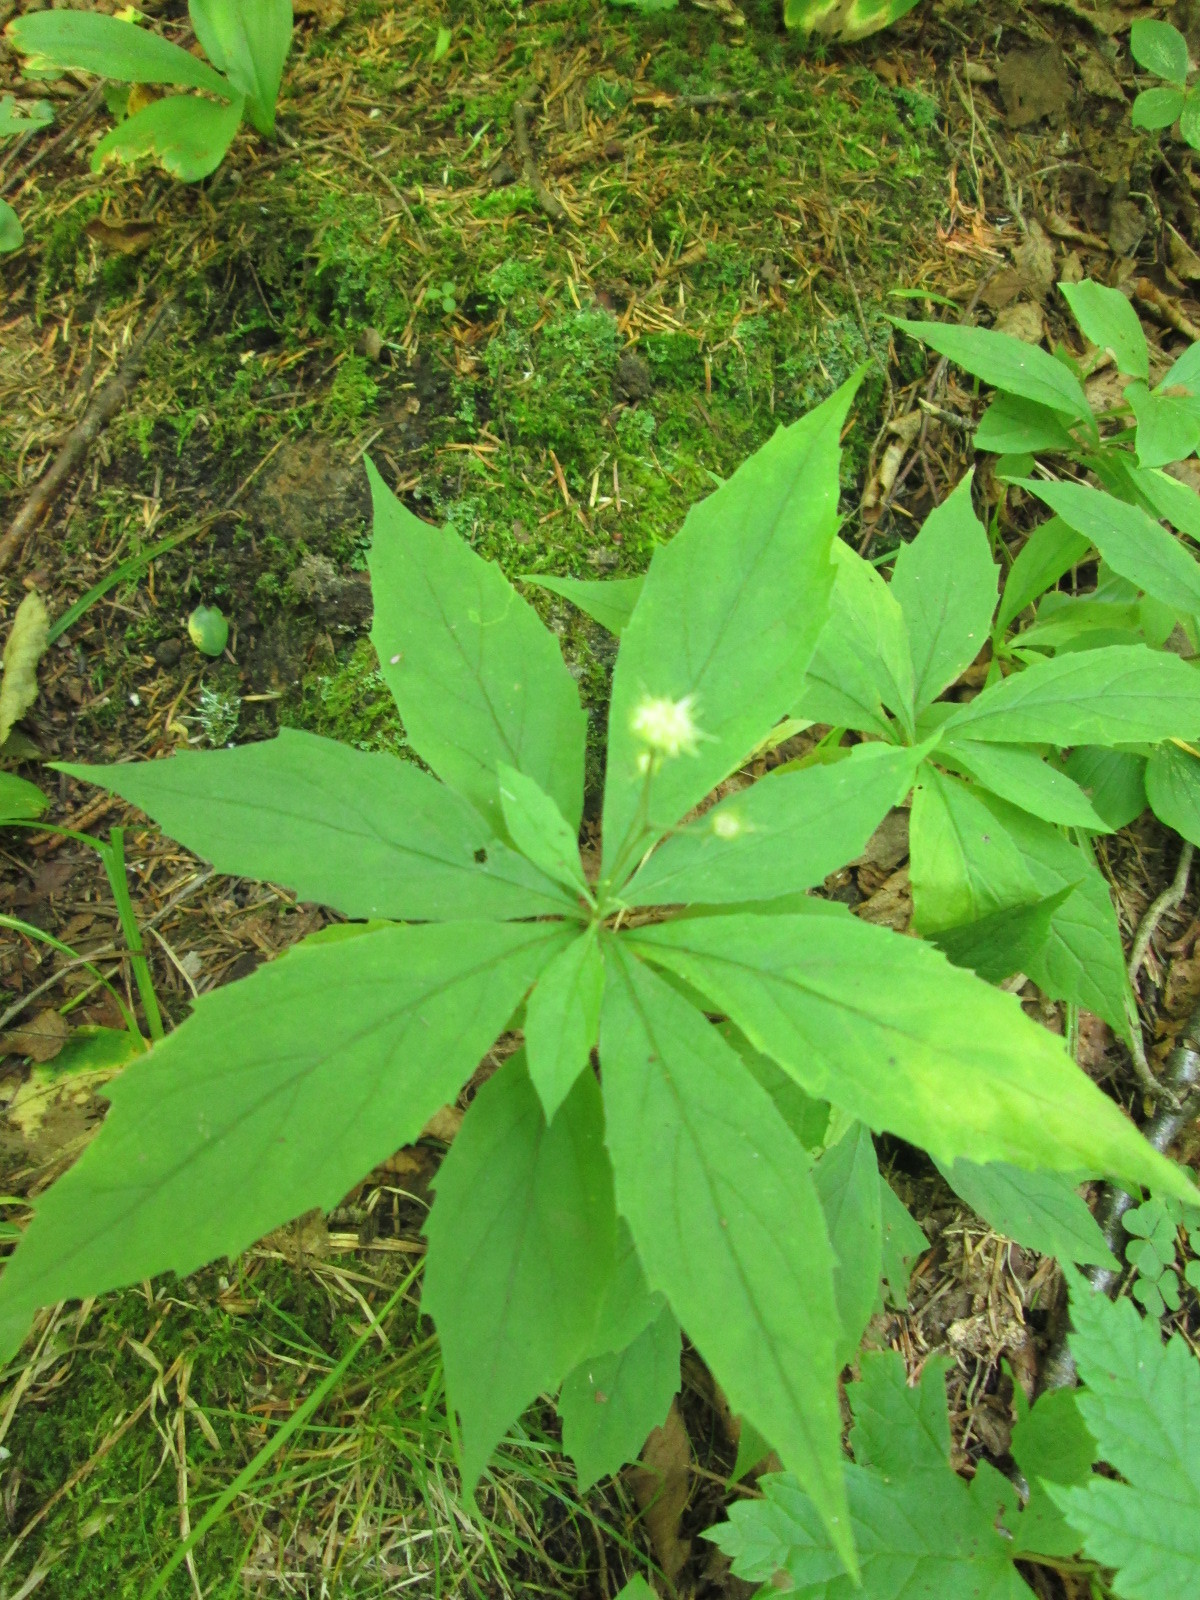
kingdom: Plantae
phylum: Tracheophyta
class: Magnoliopsida
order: Asterales
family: Asteraceae
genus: Oclemena
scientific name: Oclemena acuminata
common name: Mountain aster
